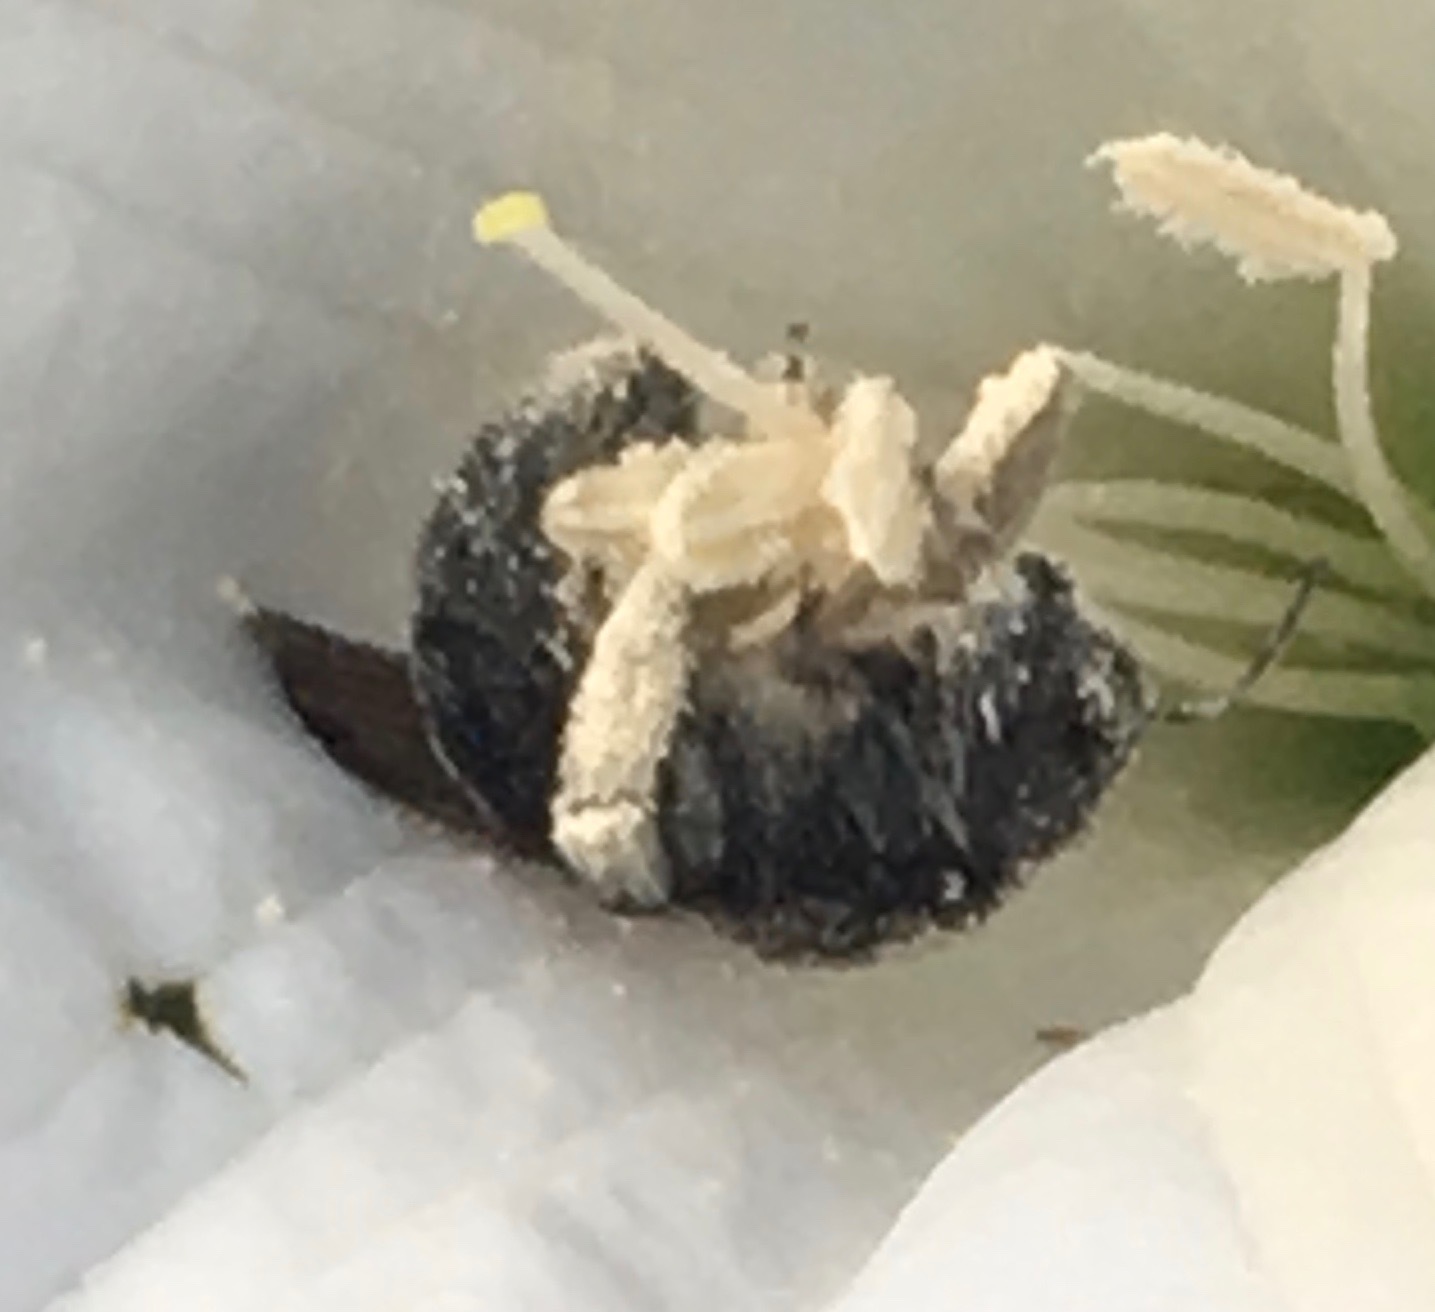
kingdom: Animalia
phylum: Arthropoda
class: Insecta
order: Hymenoptera
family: Apidae
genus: Xylocopa
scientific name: Xylocopa sonorina
